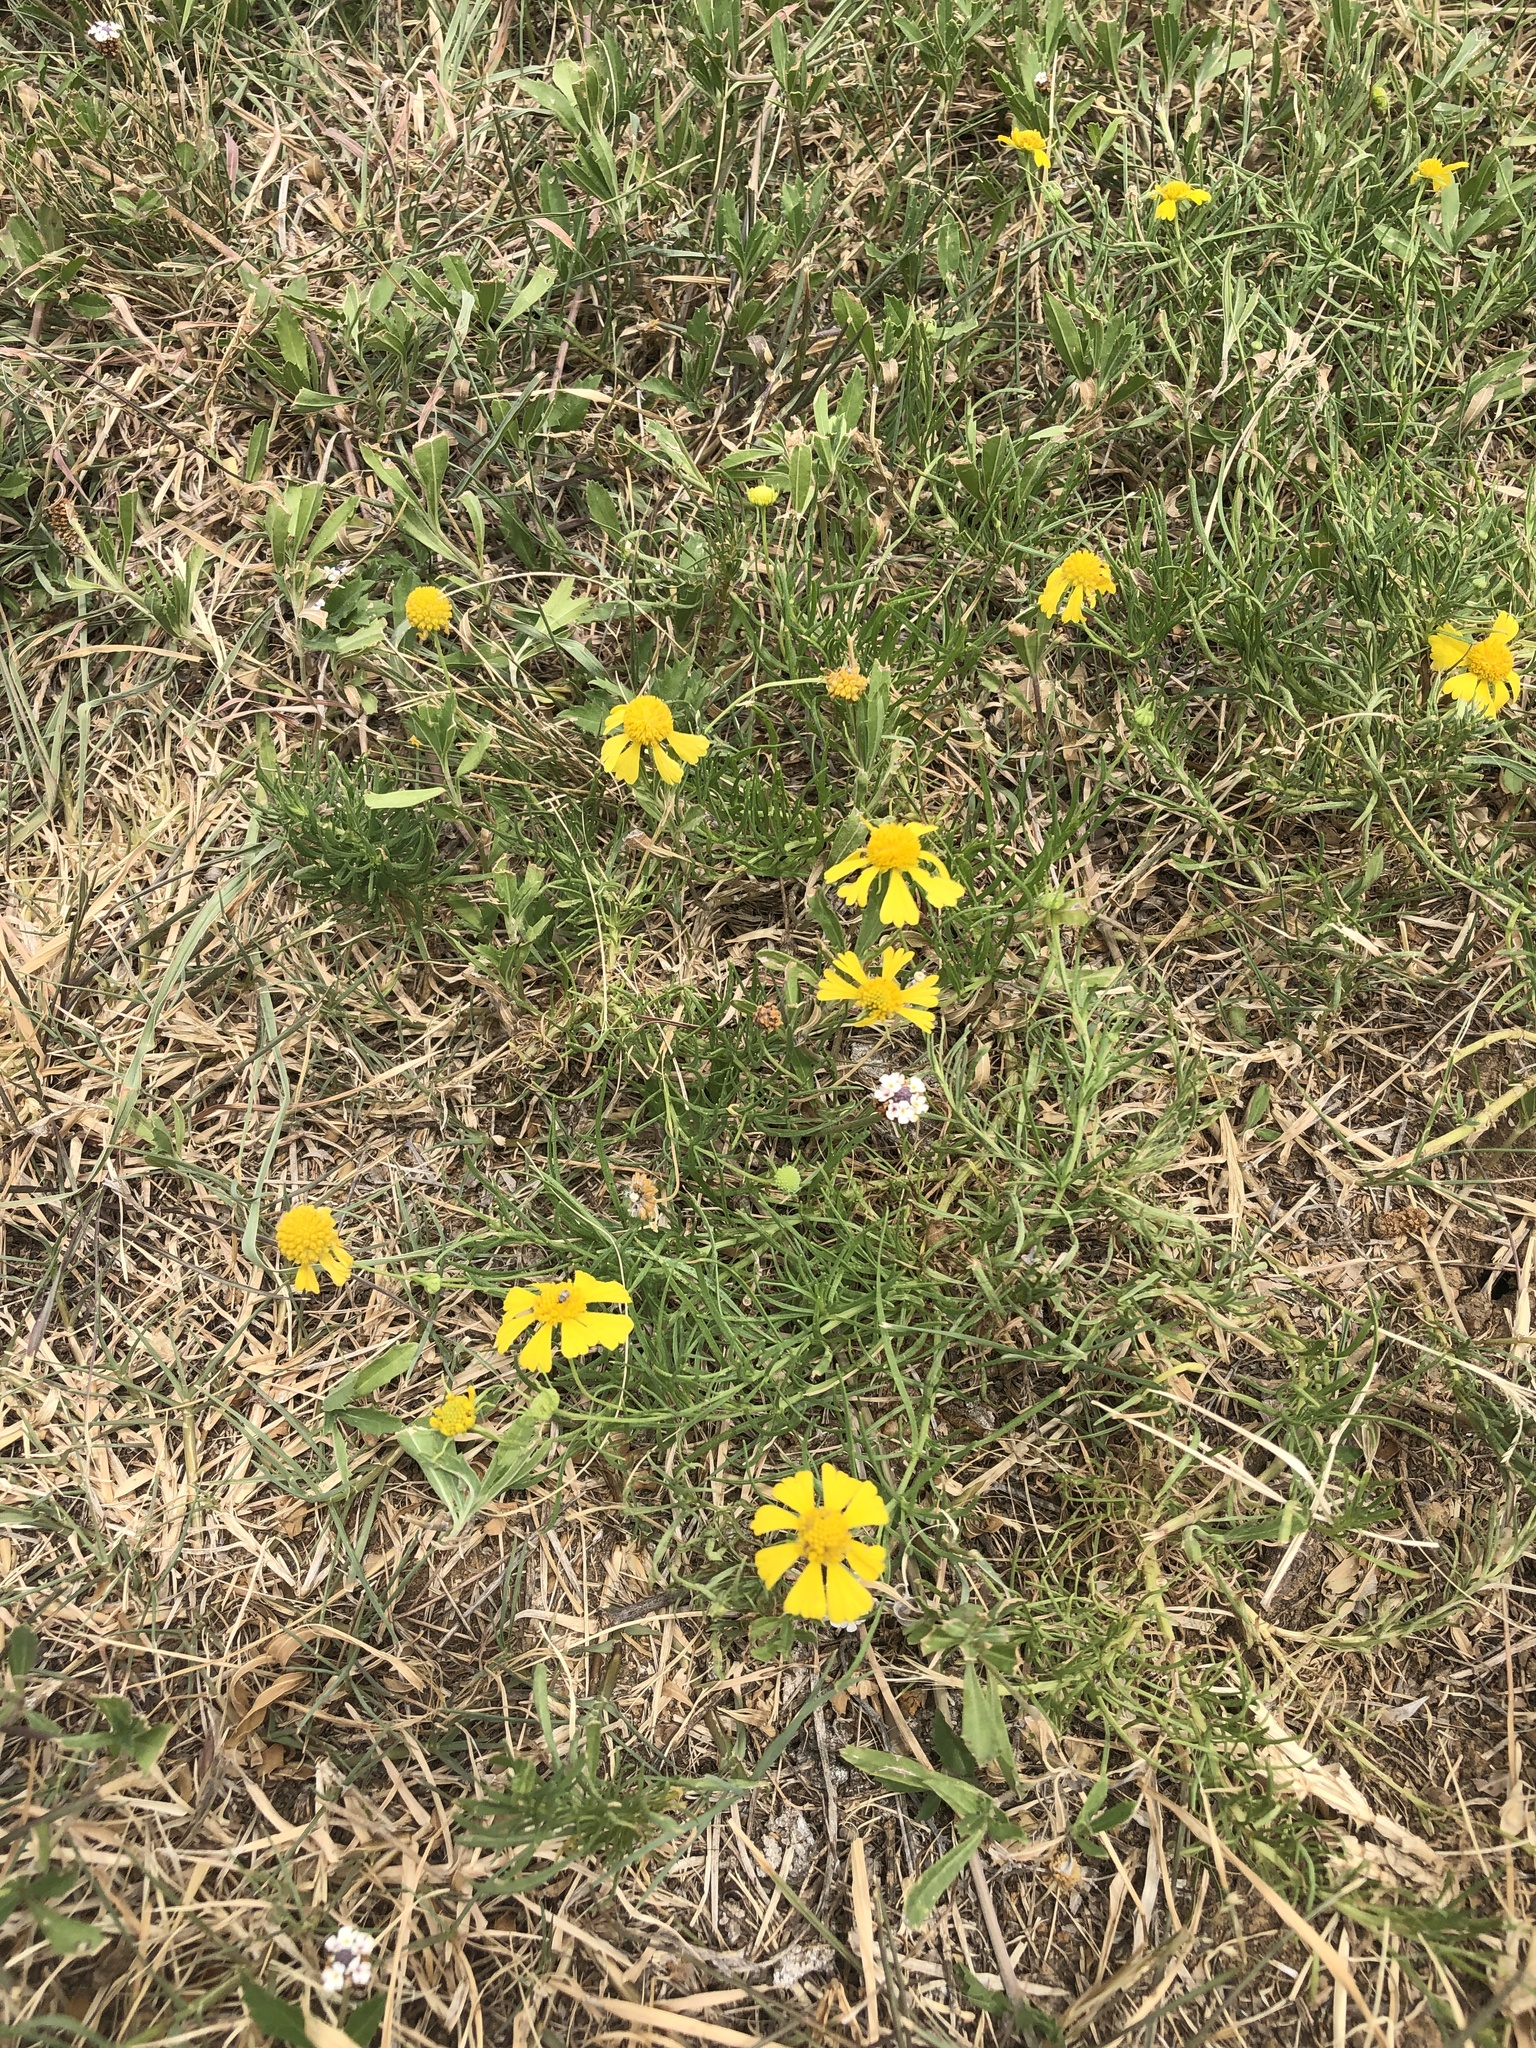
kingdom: Plantae
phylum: Tracheophyta
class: Magnoliopsida
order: Asterales
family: Asteraceae
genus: Helenium
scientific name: Helenium amarum
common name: Bitter sneezeweed
